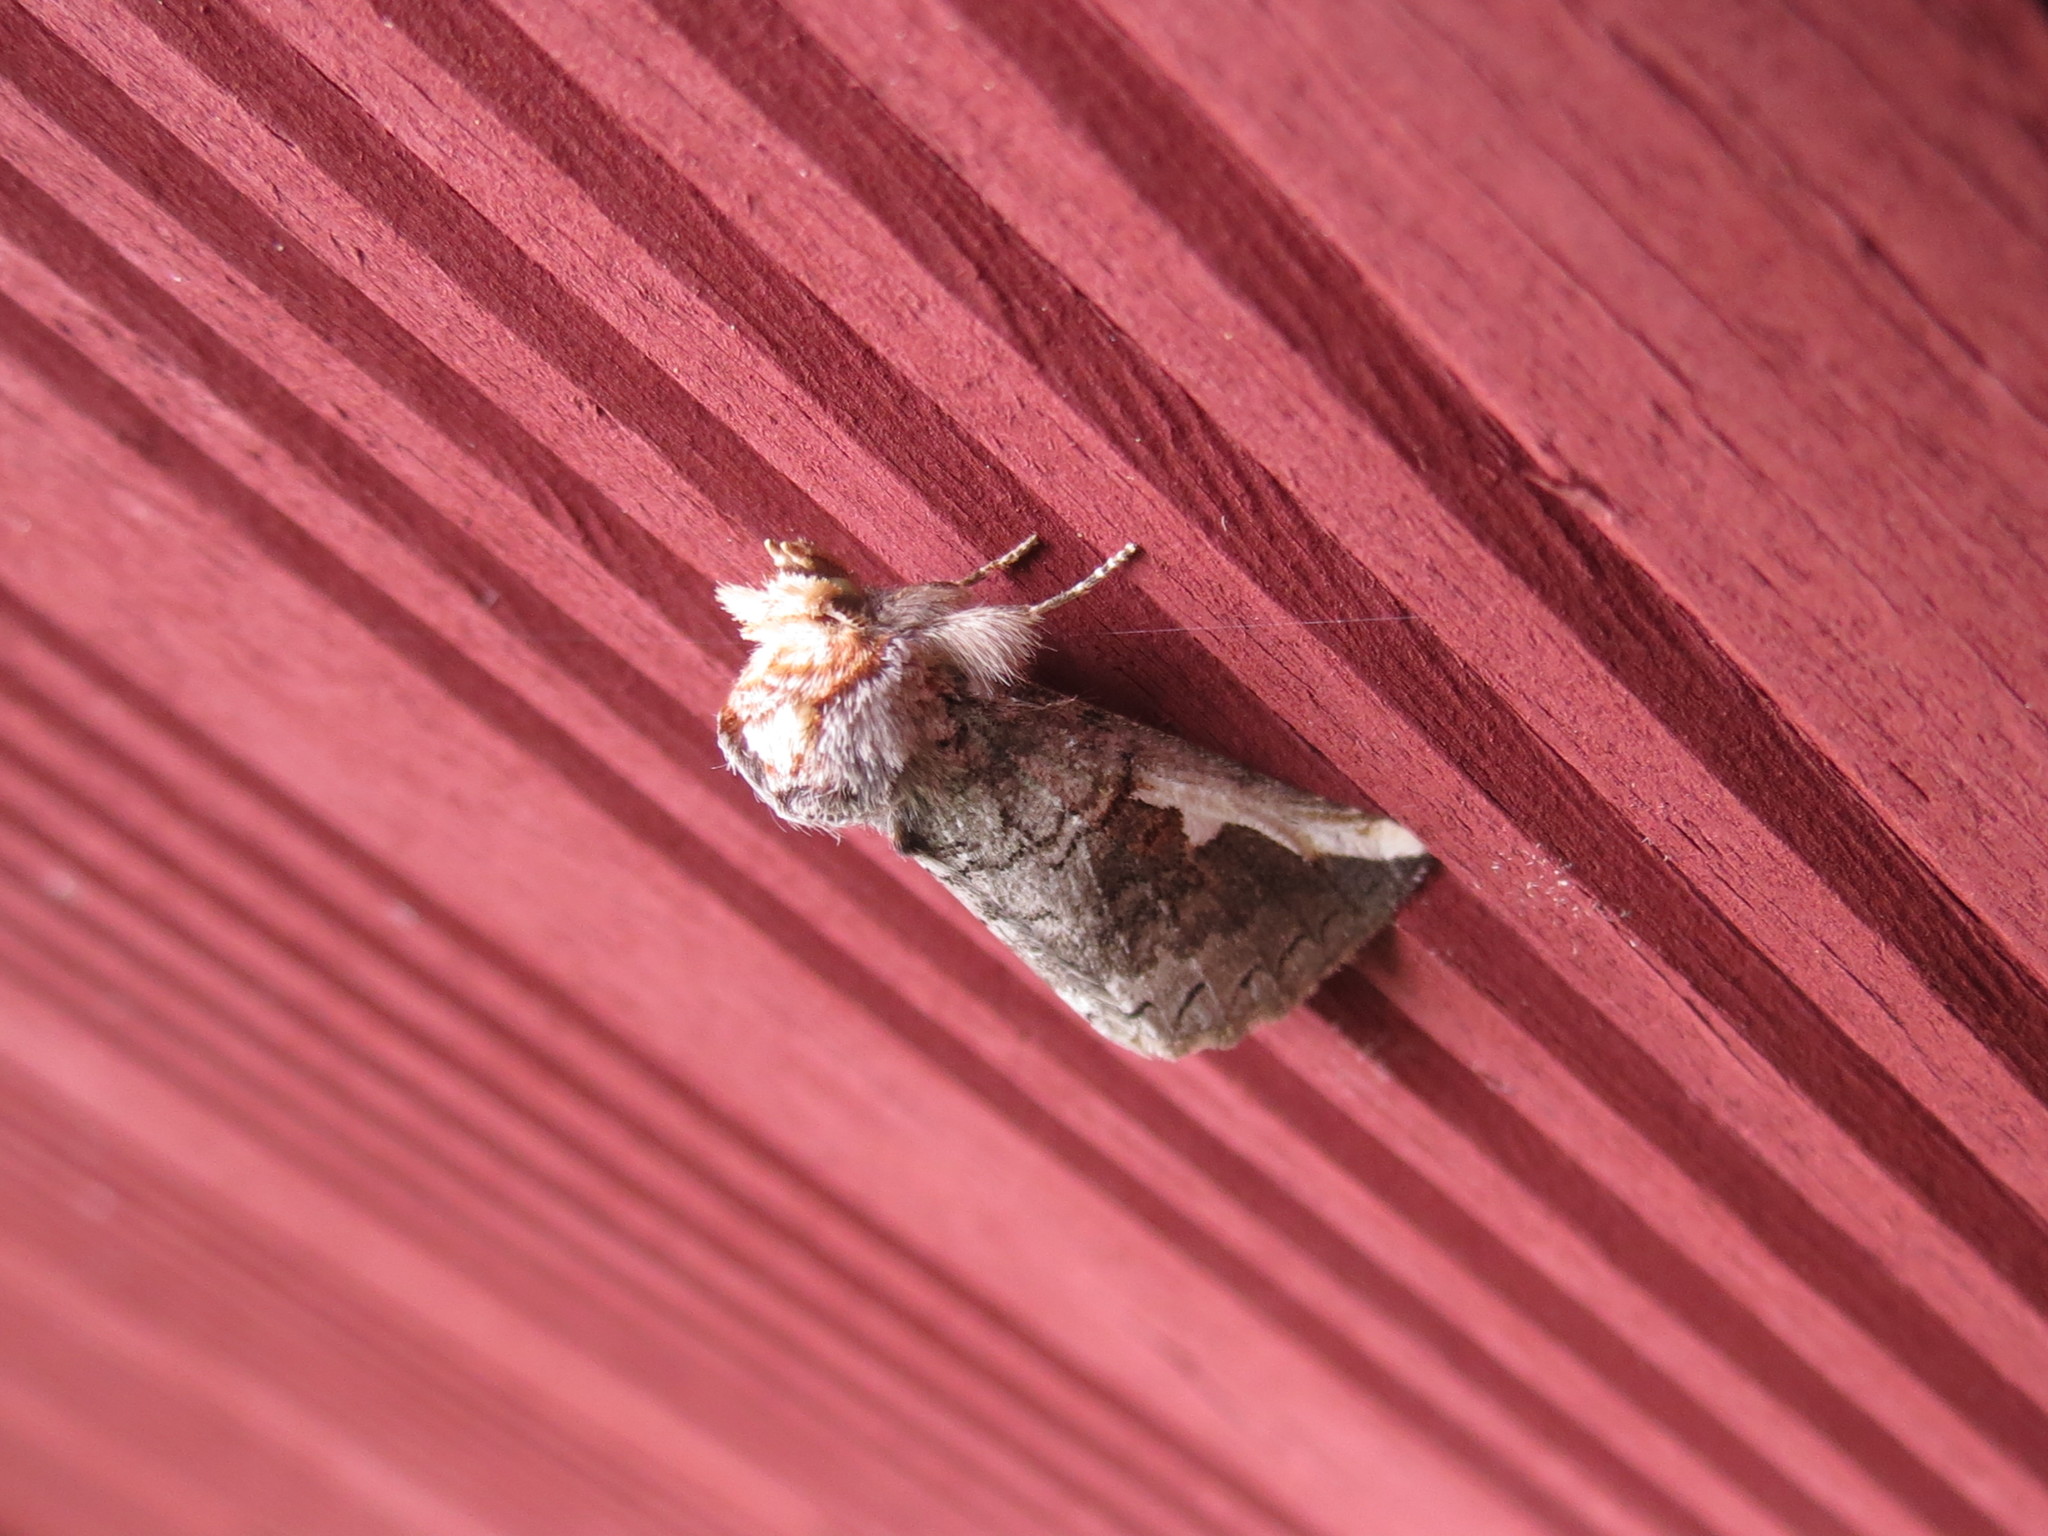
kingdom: Animalia
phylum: Arthropoda
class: Insecta
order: Lepidoptera
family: Notodontidae
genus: Symmerista
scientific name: Symmerista
